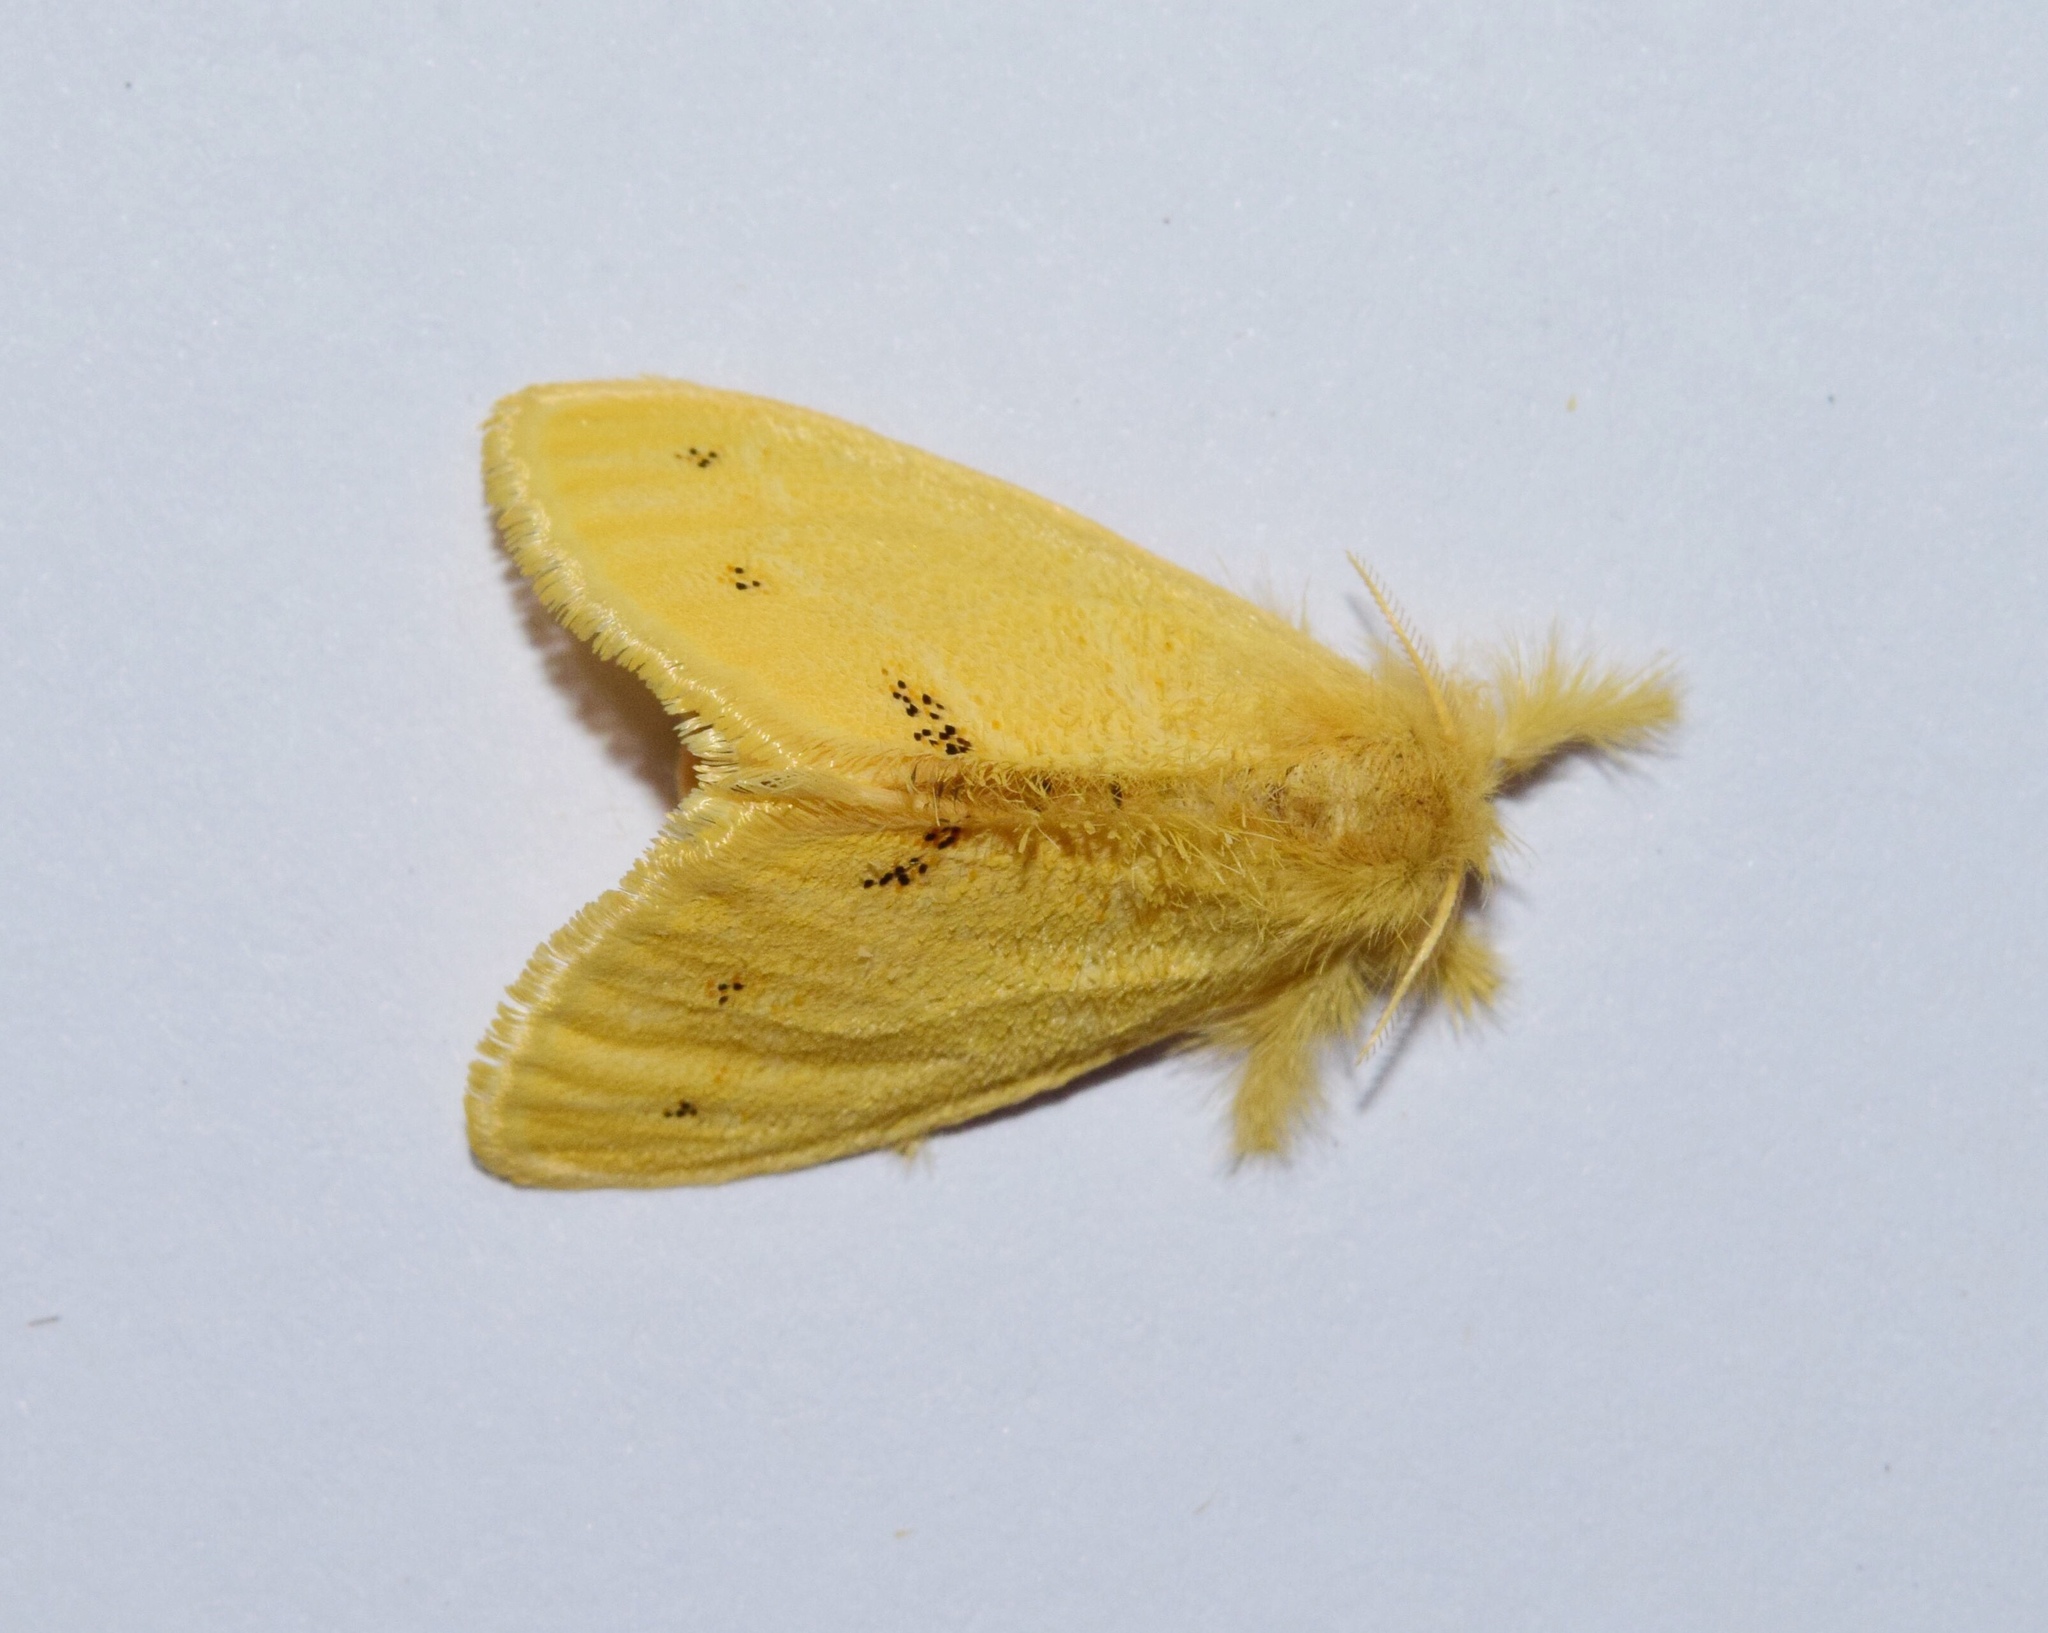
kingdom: Animalia
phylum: Arthropoda
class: Insecta
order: Lepidoptera
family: Erebidae
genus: Euproctis
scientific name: Euproctis aethiopica
